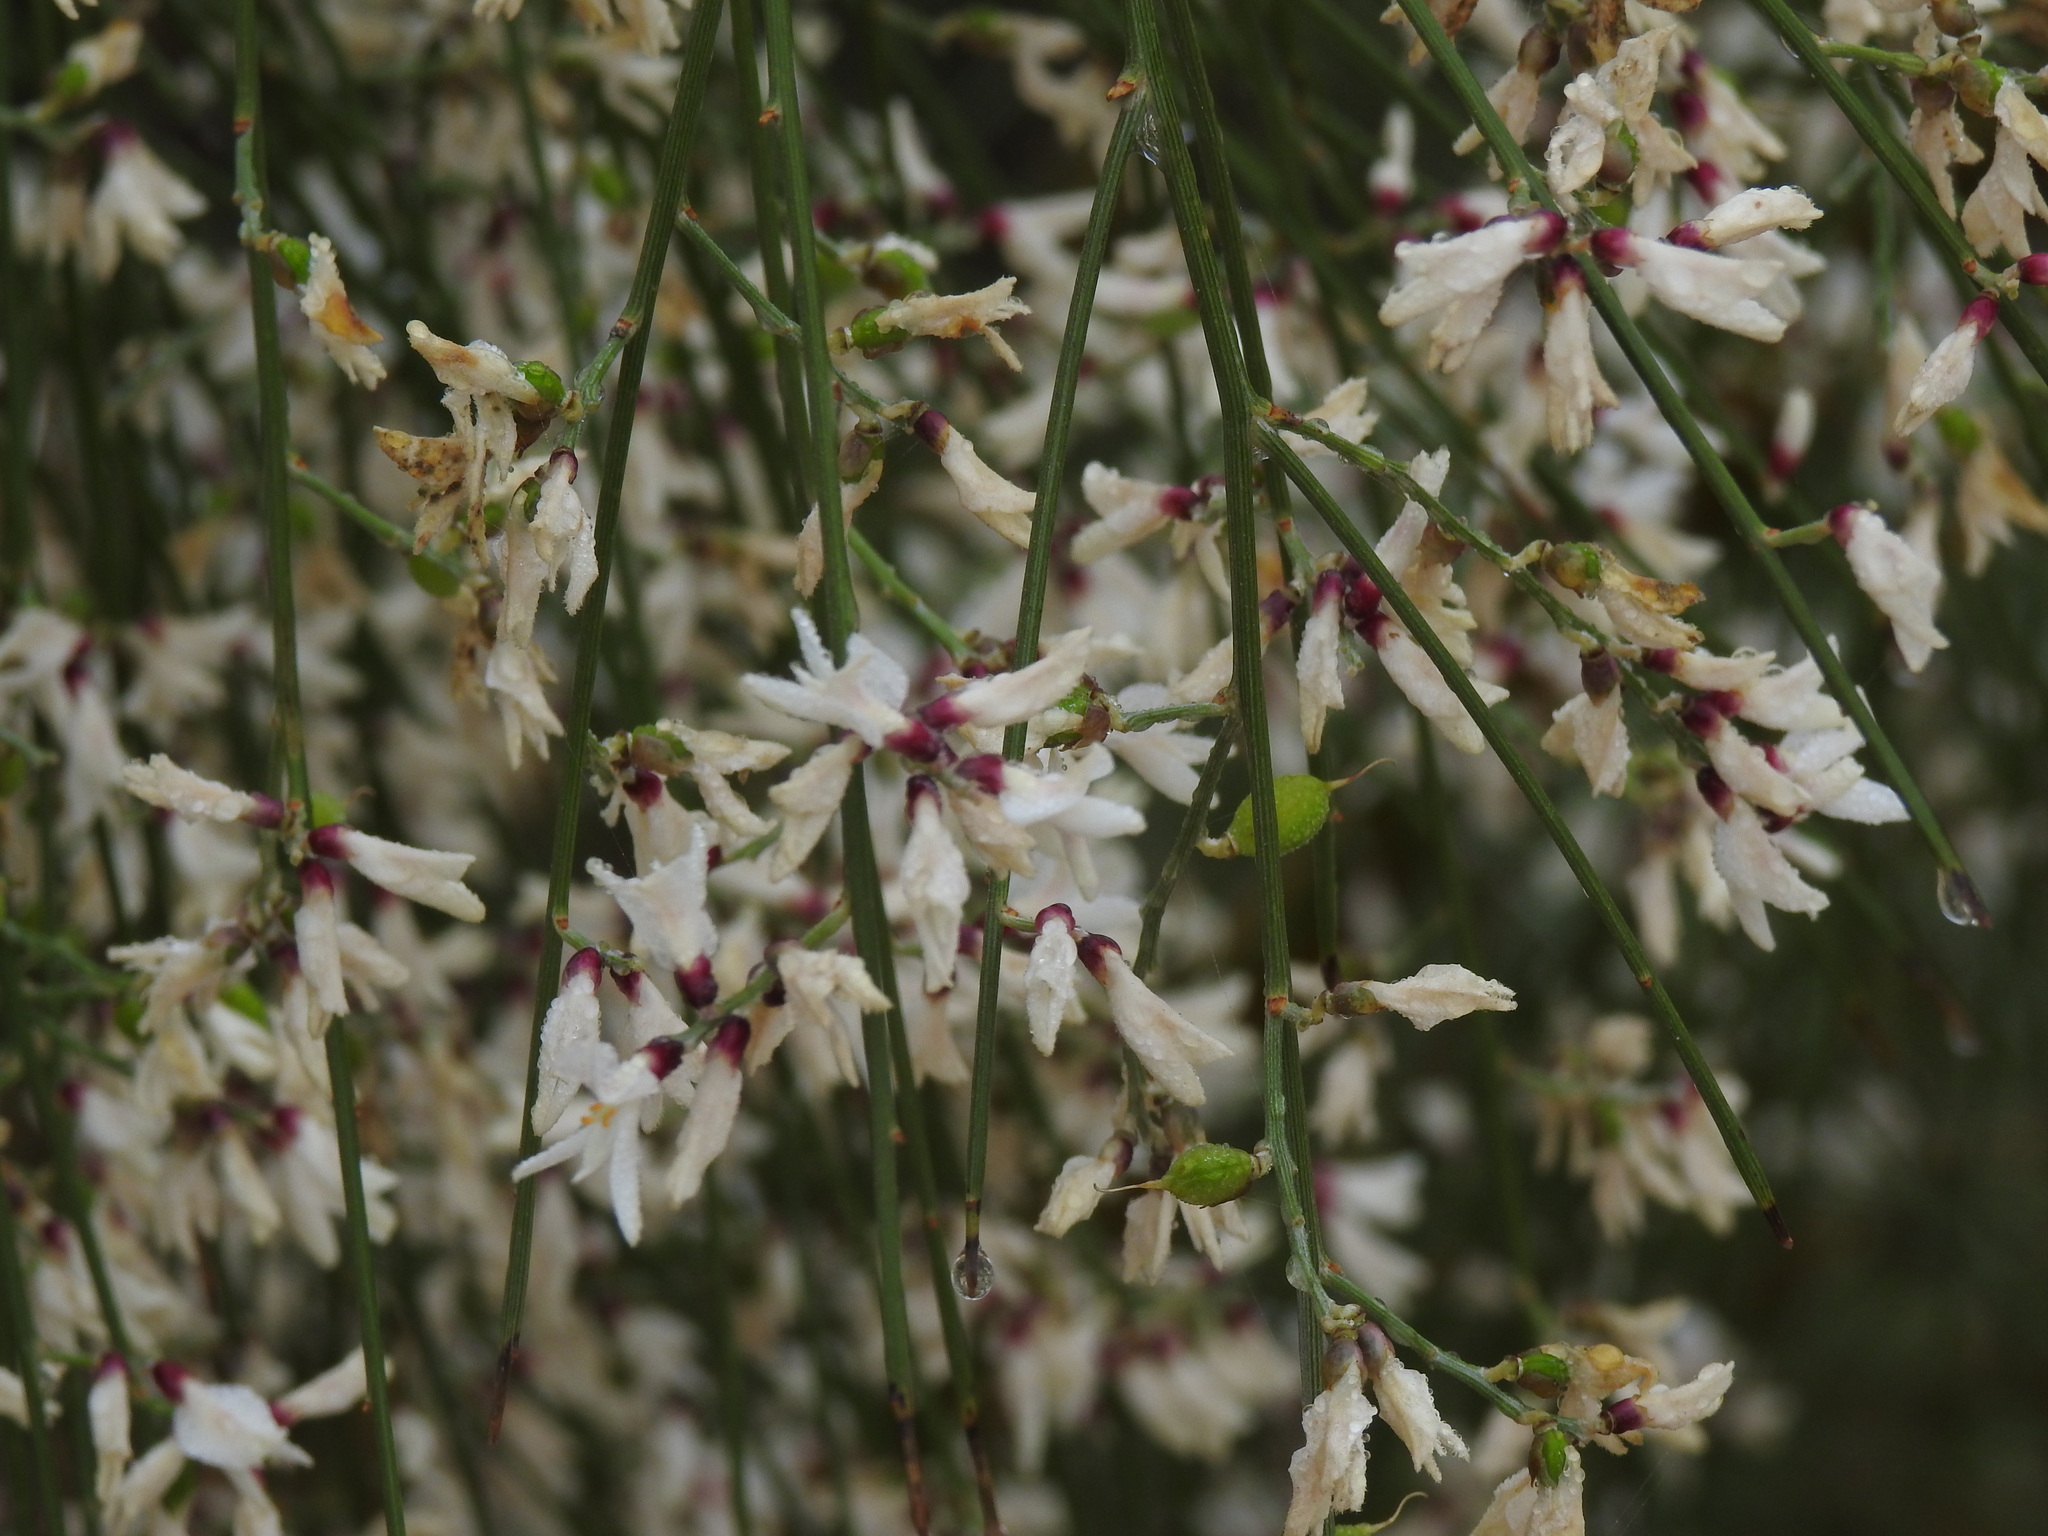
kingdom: Plantae
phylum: Tracheophyta
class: Magnoliopsida
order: Fabales
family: Fabaceae
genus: Retama
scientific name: Retama monosperma
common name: Bridal broom
